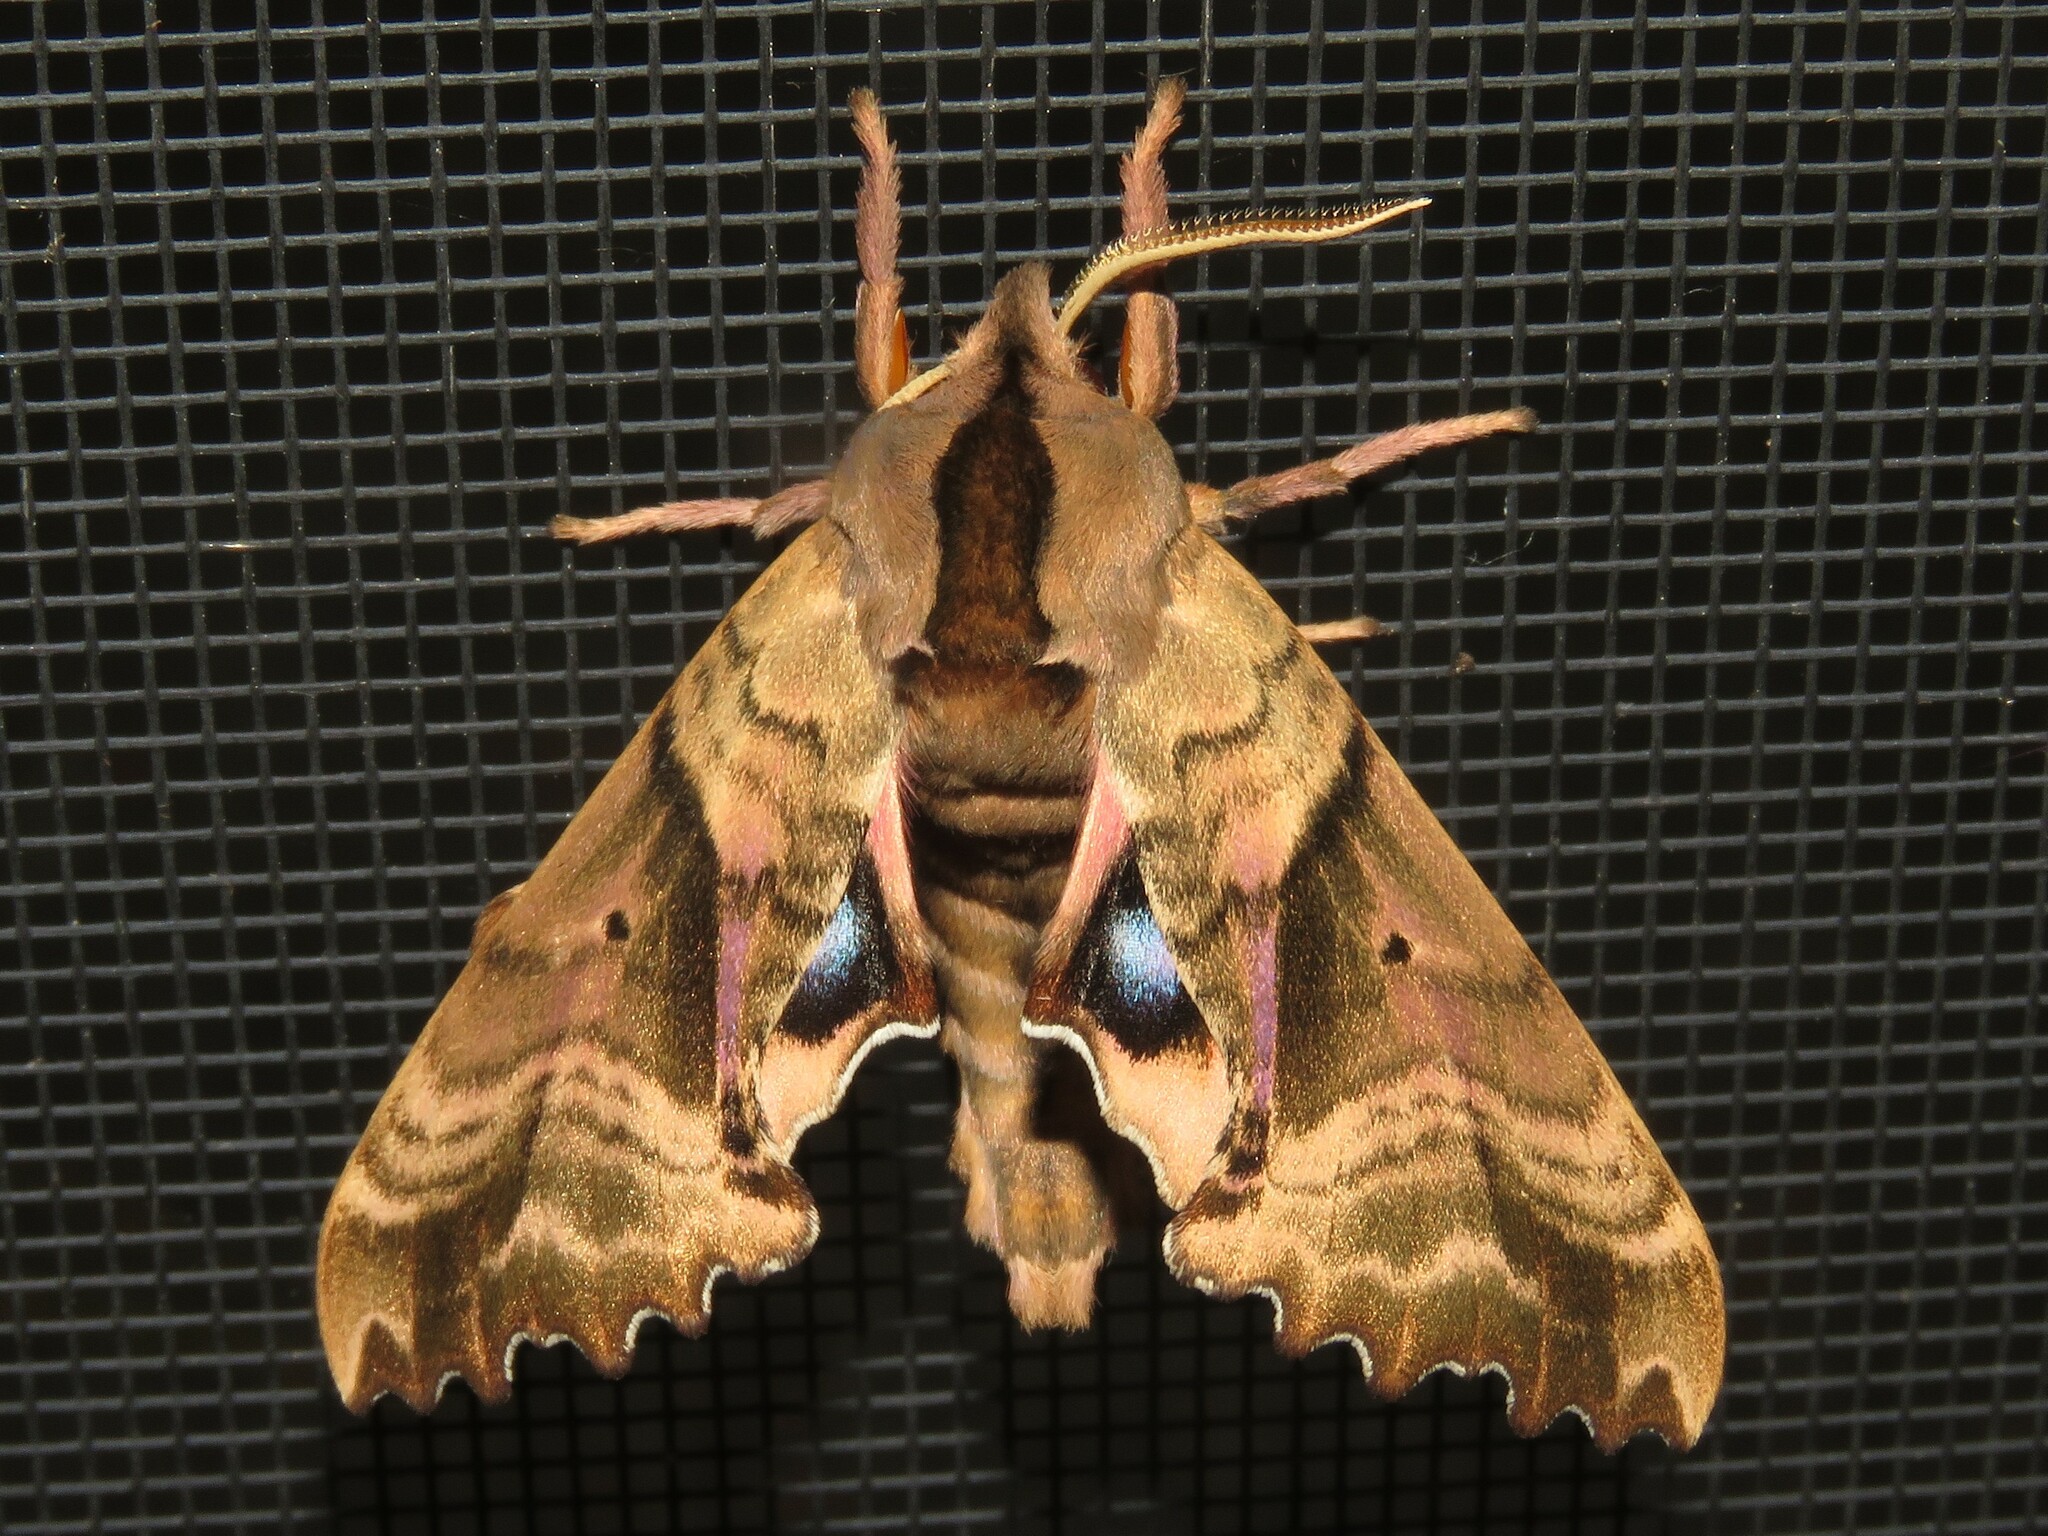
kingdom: Animalia
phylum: Arthropoda
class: Insecta
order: Lepidoptera
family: Sphingidae
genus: Paonias
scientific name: Paonias excaecata
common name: Blind-eyed sphinx
